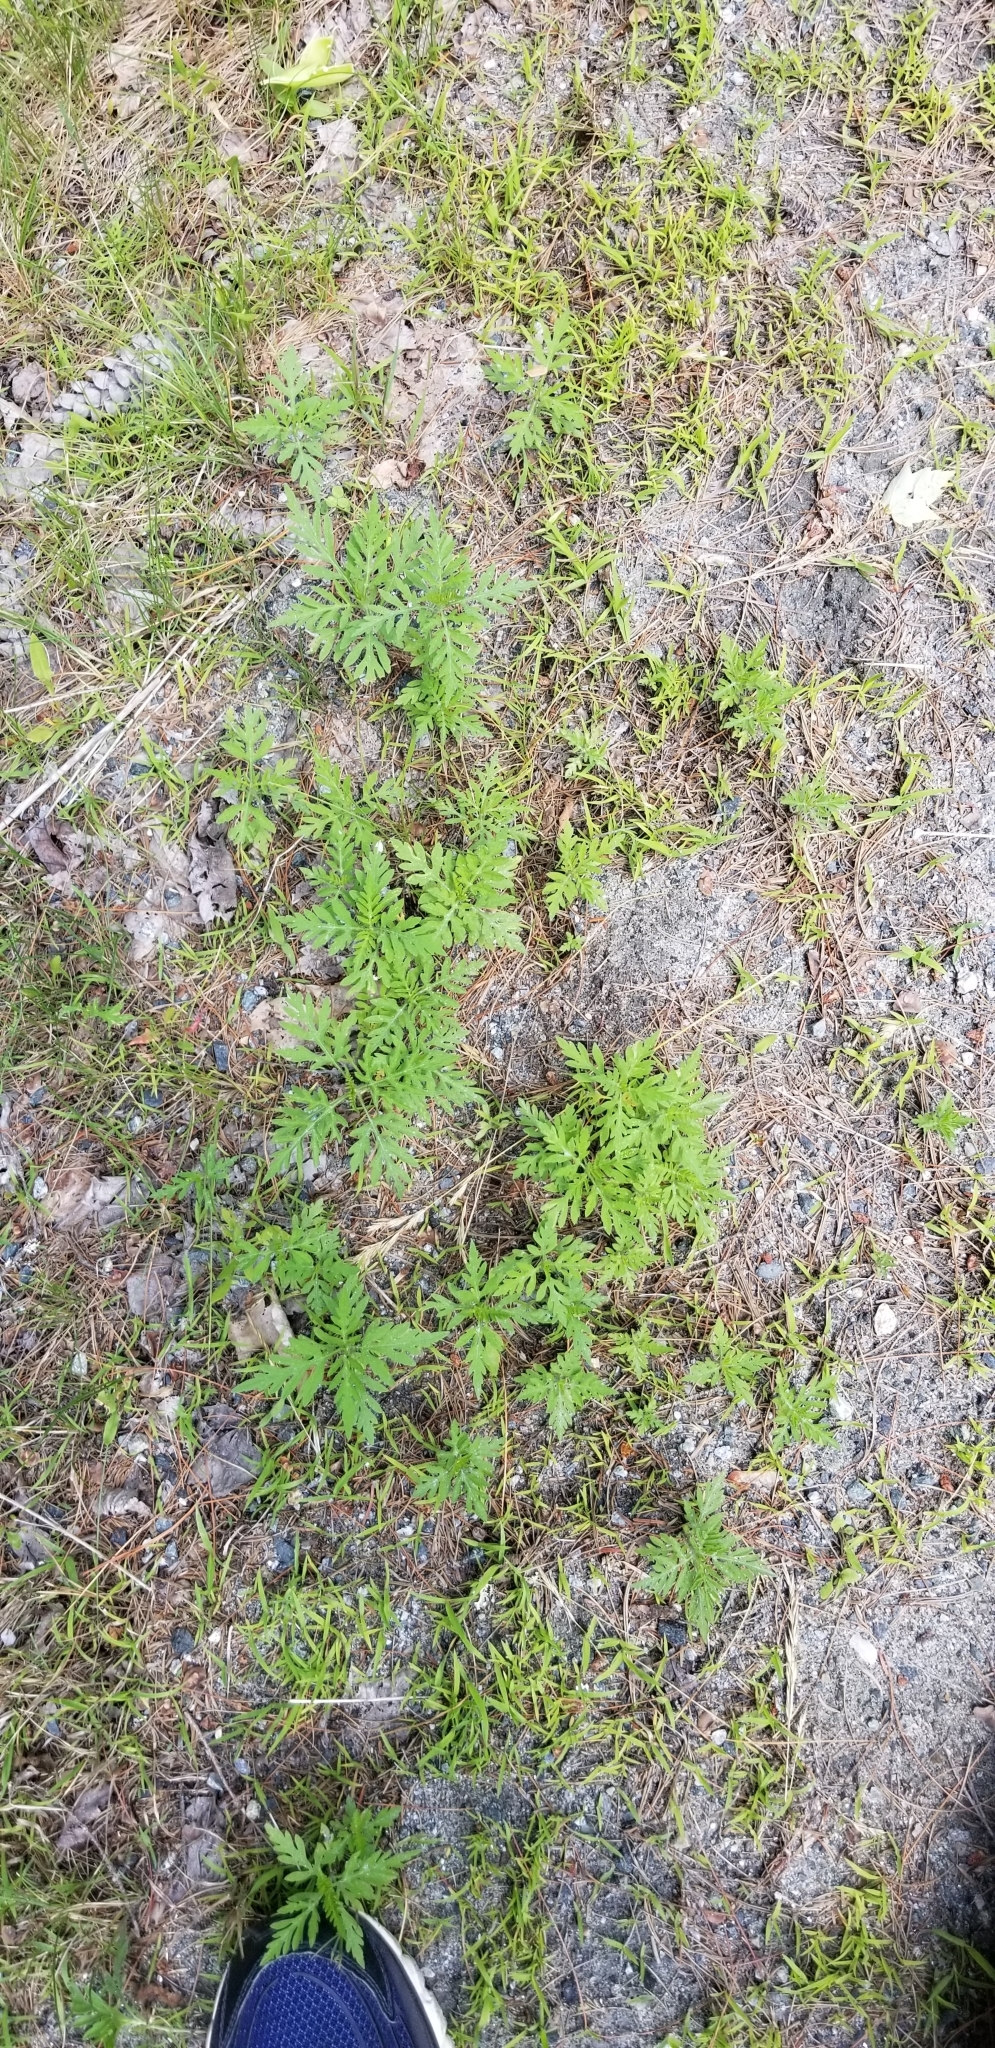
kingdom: Plantae
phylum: Tracheophyta
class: Magnoliopsida
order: Asterales
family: Asteraceae
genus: Ambrosia
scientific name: Ambrosia artemisiifolia
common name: Annual ragweed
